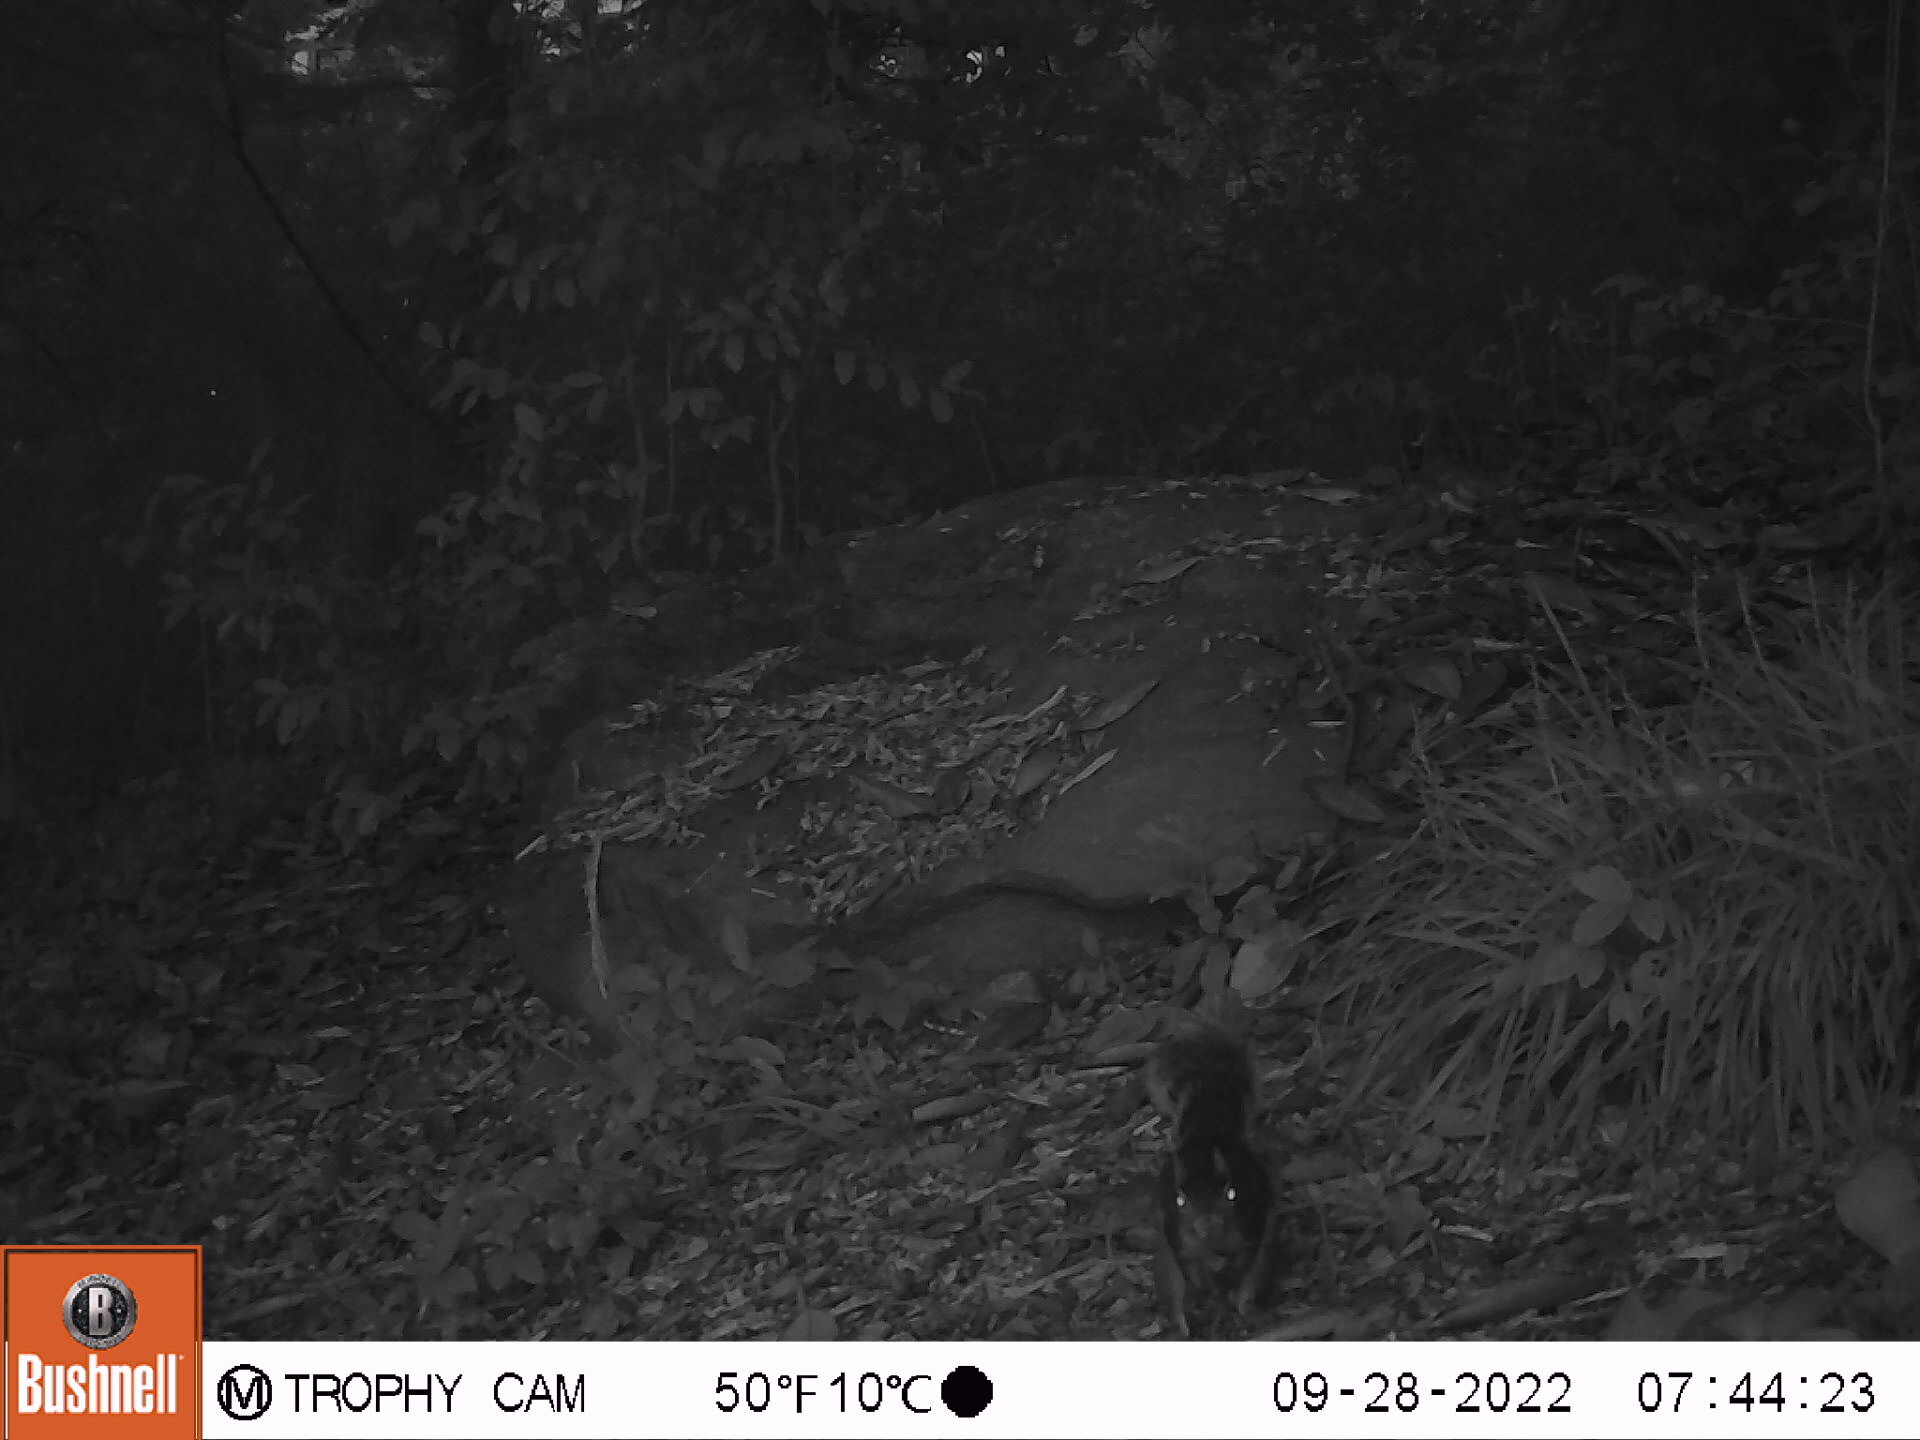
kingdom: Animalia
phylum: Chordata
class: Mammalia
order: Rodentia
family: Sciuridae
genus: Sciurus
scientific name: Sciurus carolinensis
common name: Eastern gray squirrel
